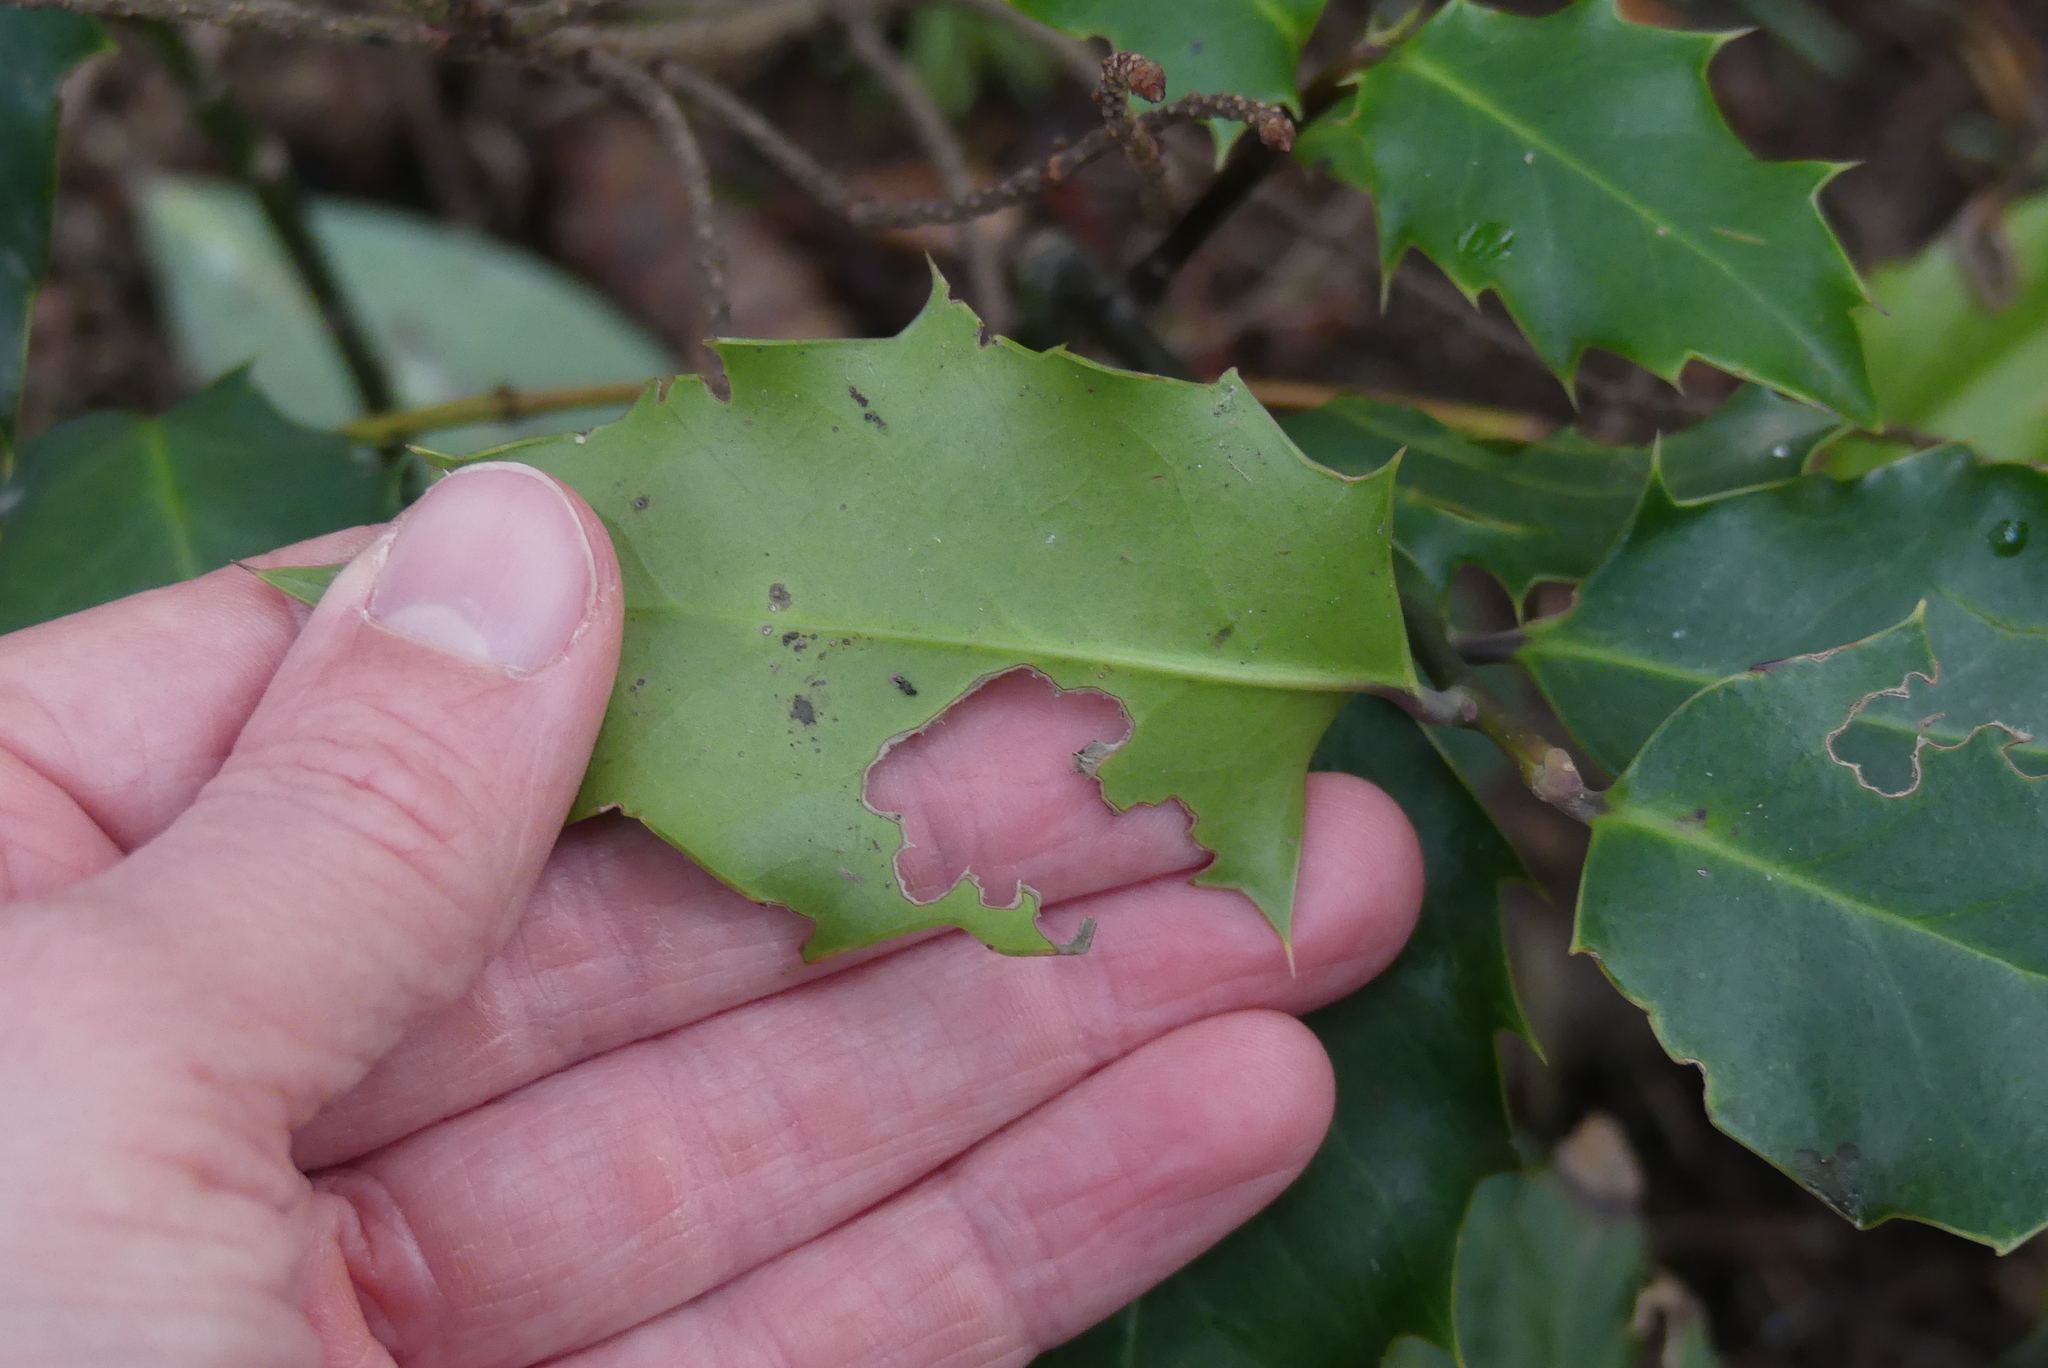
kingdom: Plantae
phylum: Tracheophyta
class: Magnoliopsida
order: Aquifoliales
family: Aquifoliaceae
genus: Ilex
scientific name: Ilex aquifolium
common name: English holly
